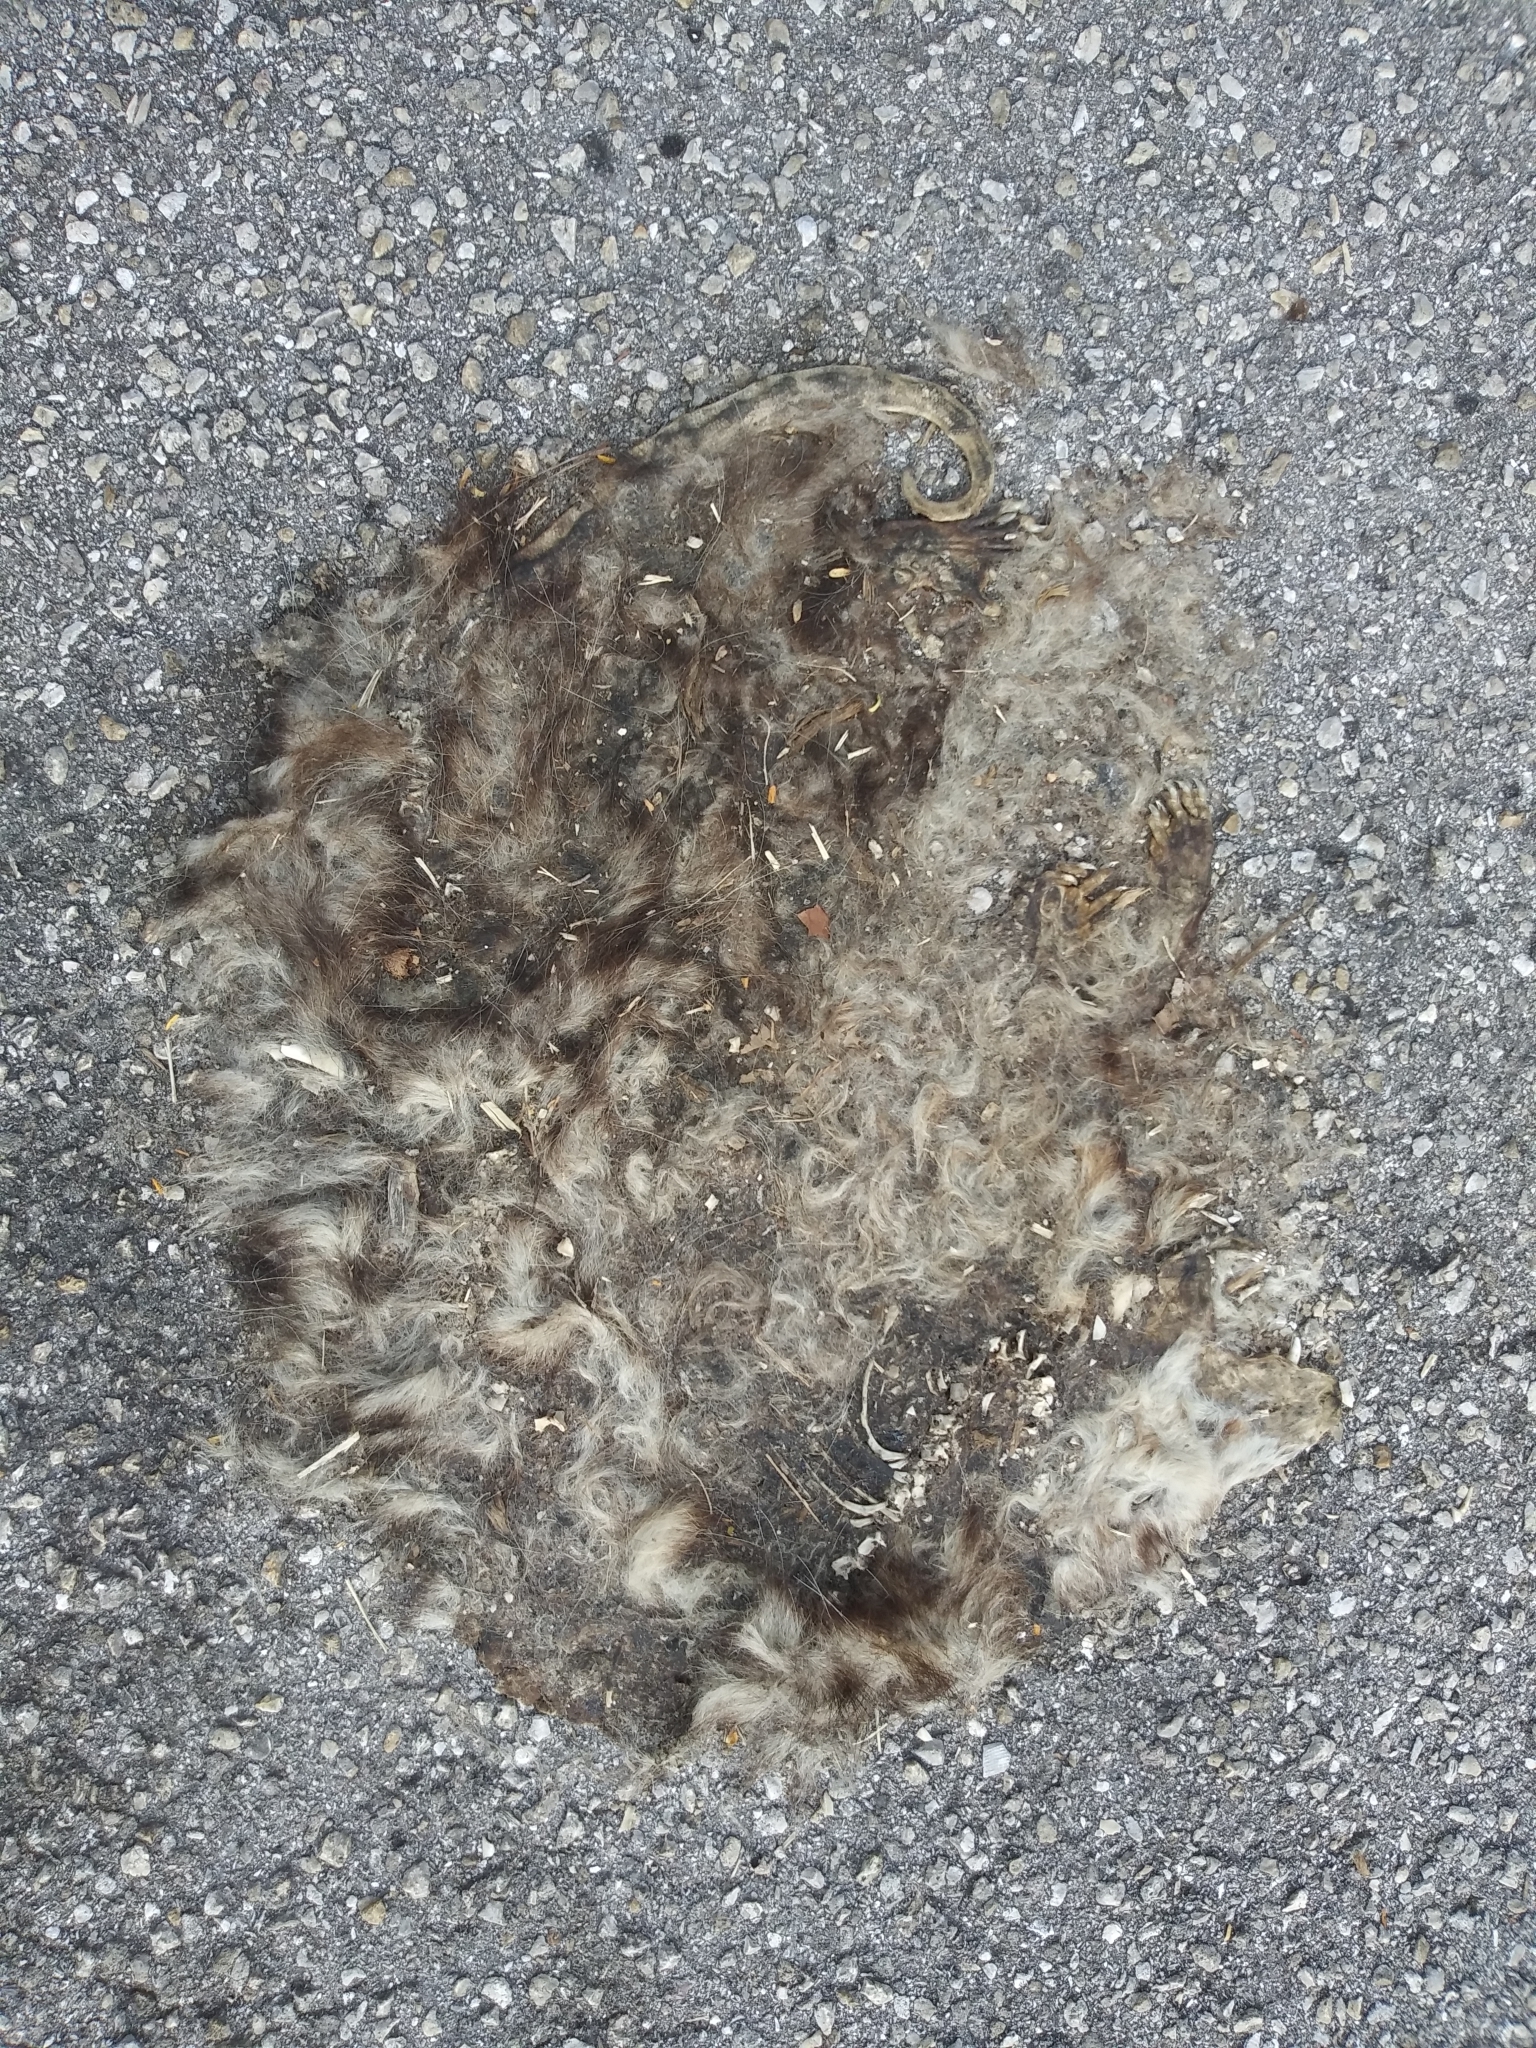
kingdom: Animalia
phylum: Chordata
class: Mammalia
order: Didelphimorphia
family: Didelphidae
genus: Didelphis
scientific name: Didelphis virginiana
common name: Virginia opossum
